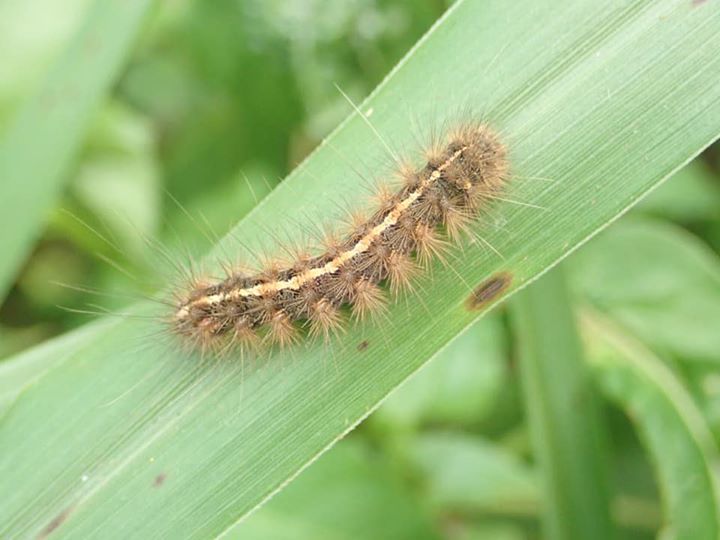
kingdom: Animalia
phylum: Arthropoda
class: Insecta
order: Lepidoptera
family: Erebidae
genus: Creatonotos
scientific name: Creatonotos transiens
